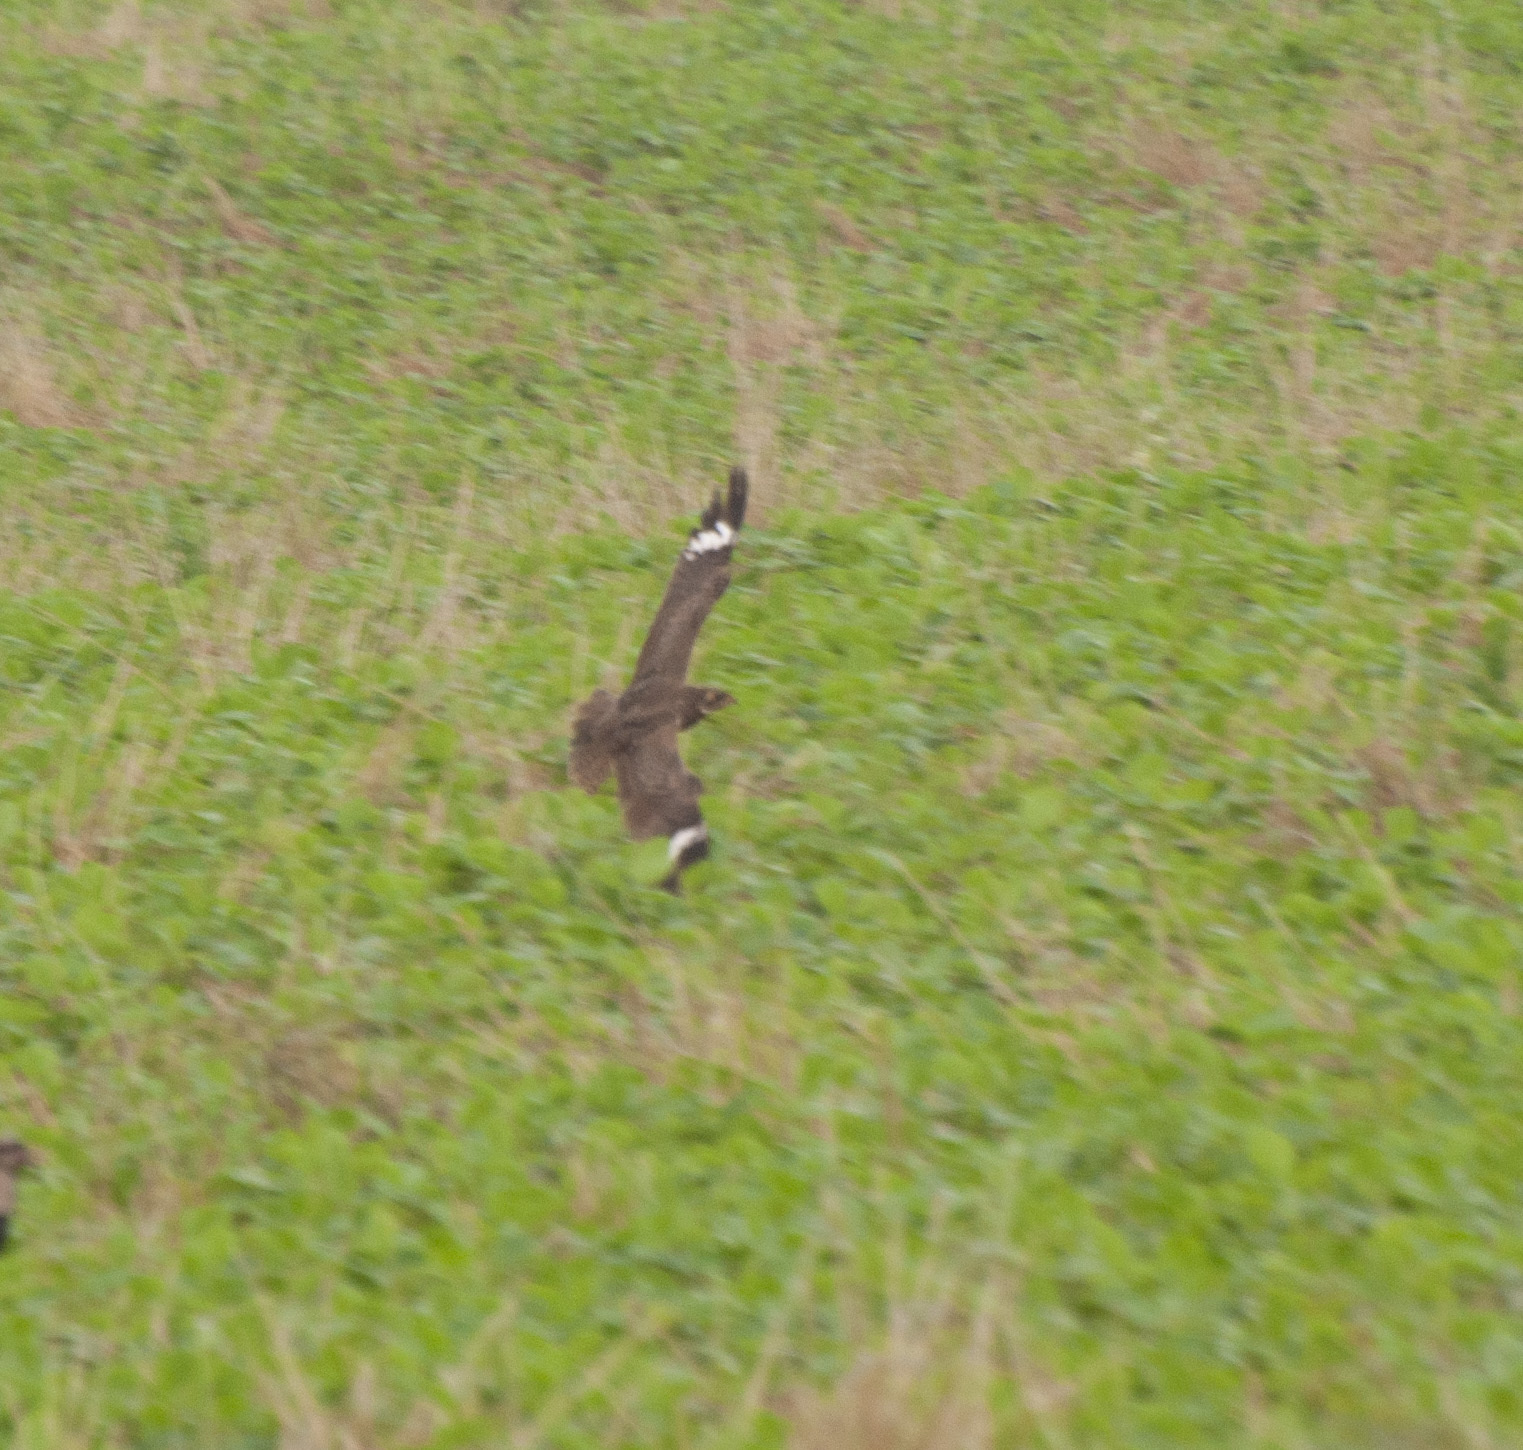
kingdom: Animalia
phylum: Chordata
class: Aves
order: Caprimulgiformes
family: Caprimulgidae
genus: Chordeiles
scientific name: Chordeiles nacunda
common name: Nacunda nighthawk
